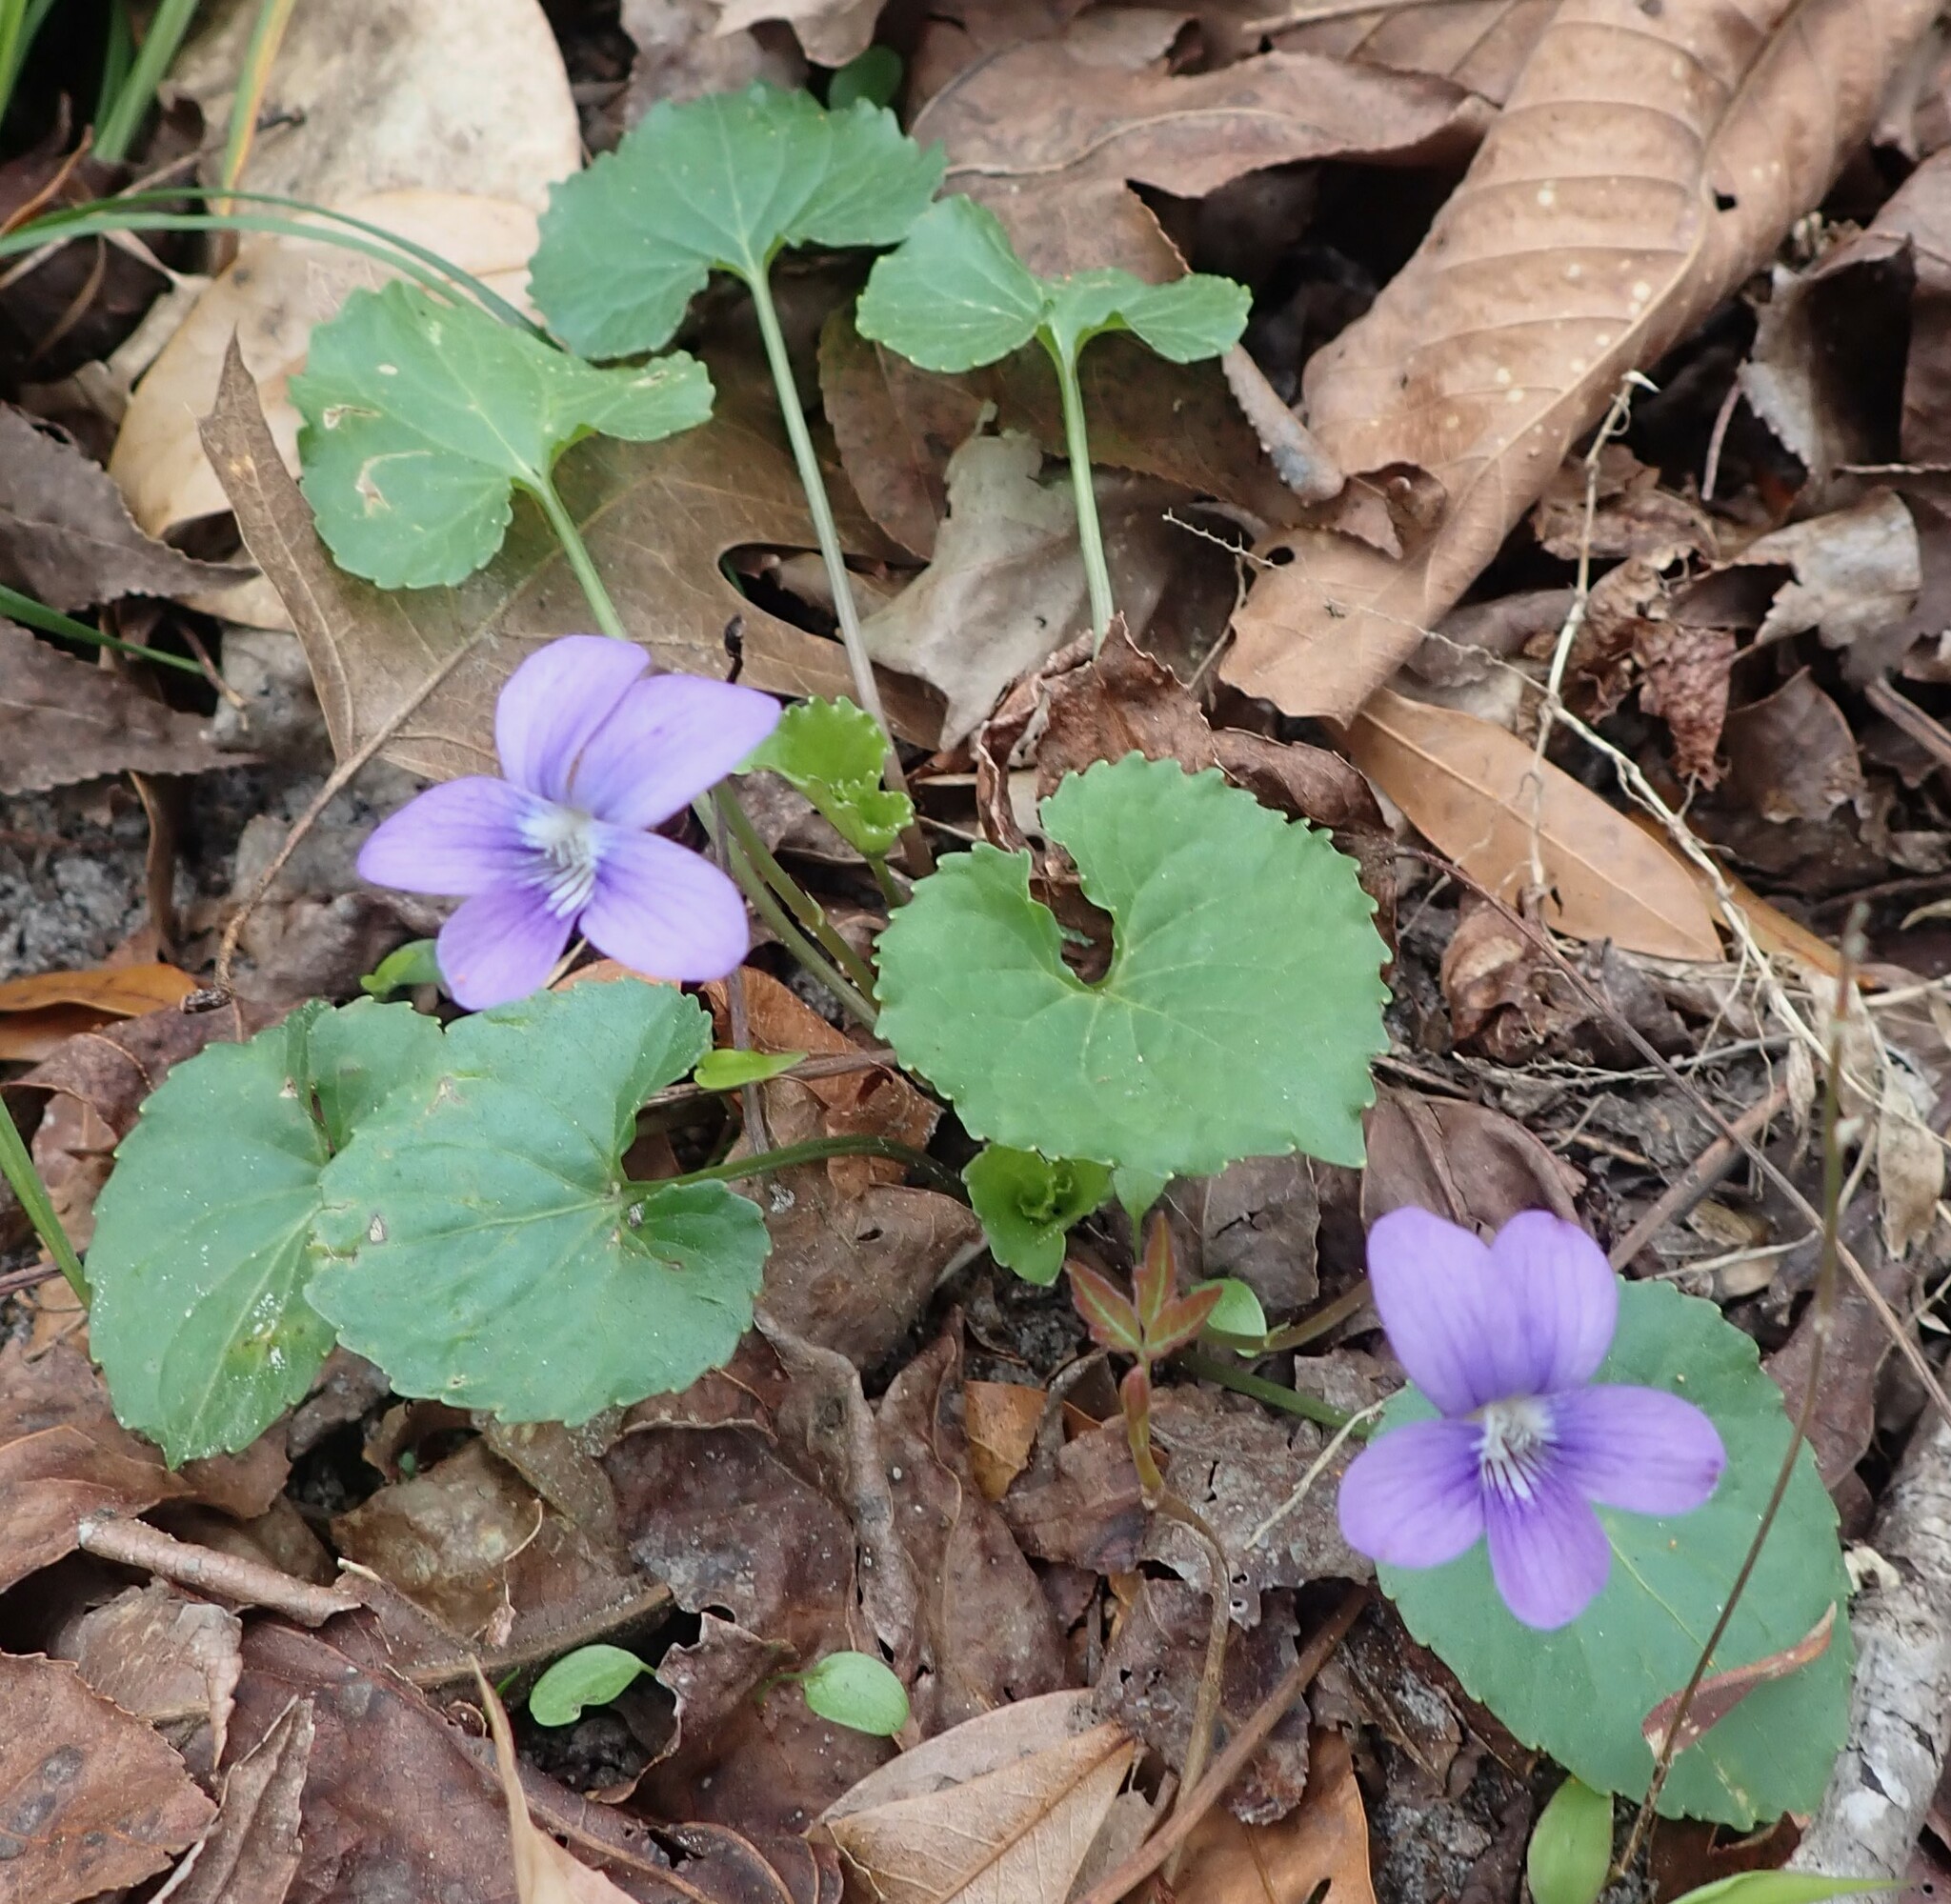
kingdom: Plantae
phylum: Tracheophyta
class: Magnoliopsida
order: Malpighiales
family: Violaceae
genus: Viola
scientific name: Viola sororia
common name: Dooryard violet
